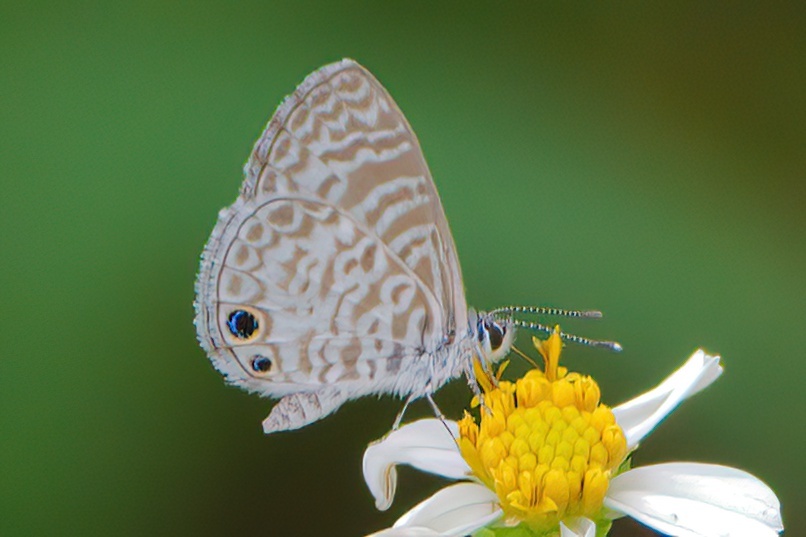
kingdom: Animalia
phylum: Arthropoda
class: Insecta
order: Lepidoptera
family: Lycaenidae
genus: Leptotes
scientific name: Leptotes cassius
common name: Cassius blue
